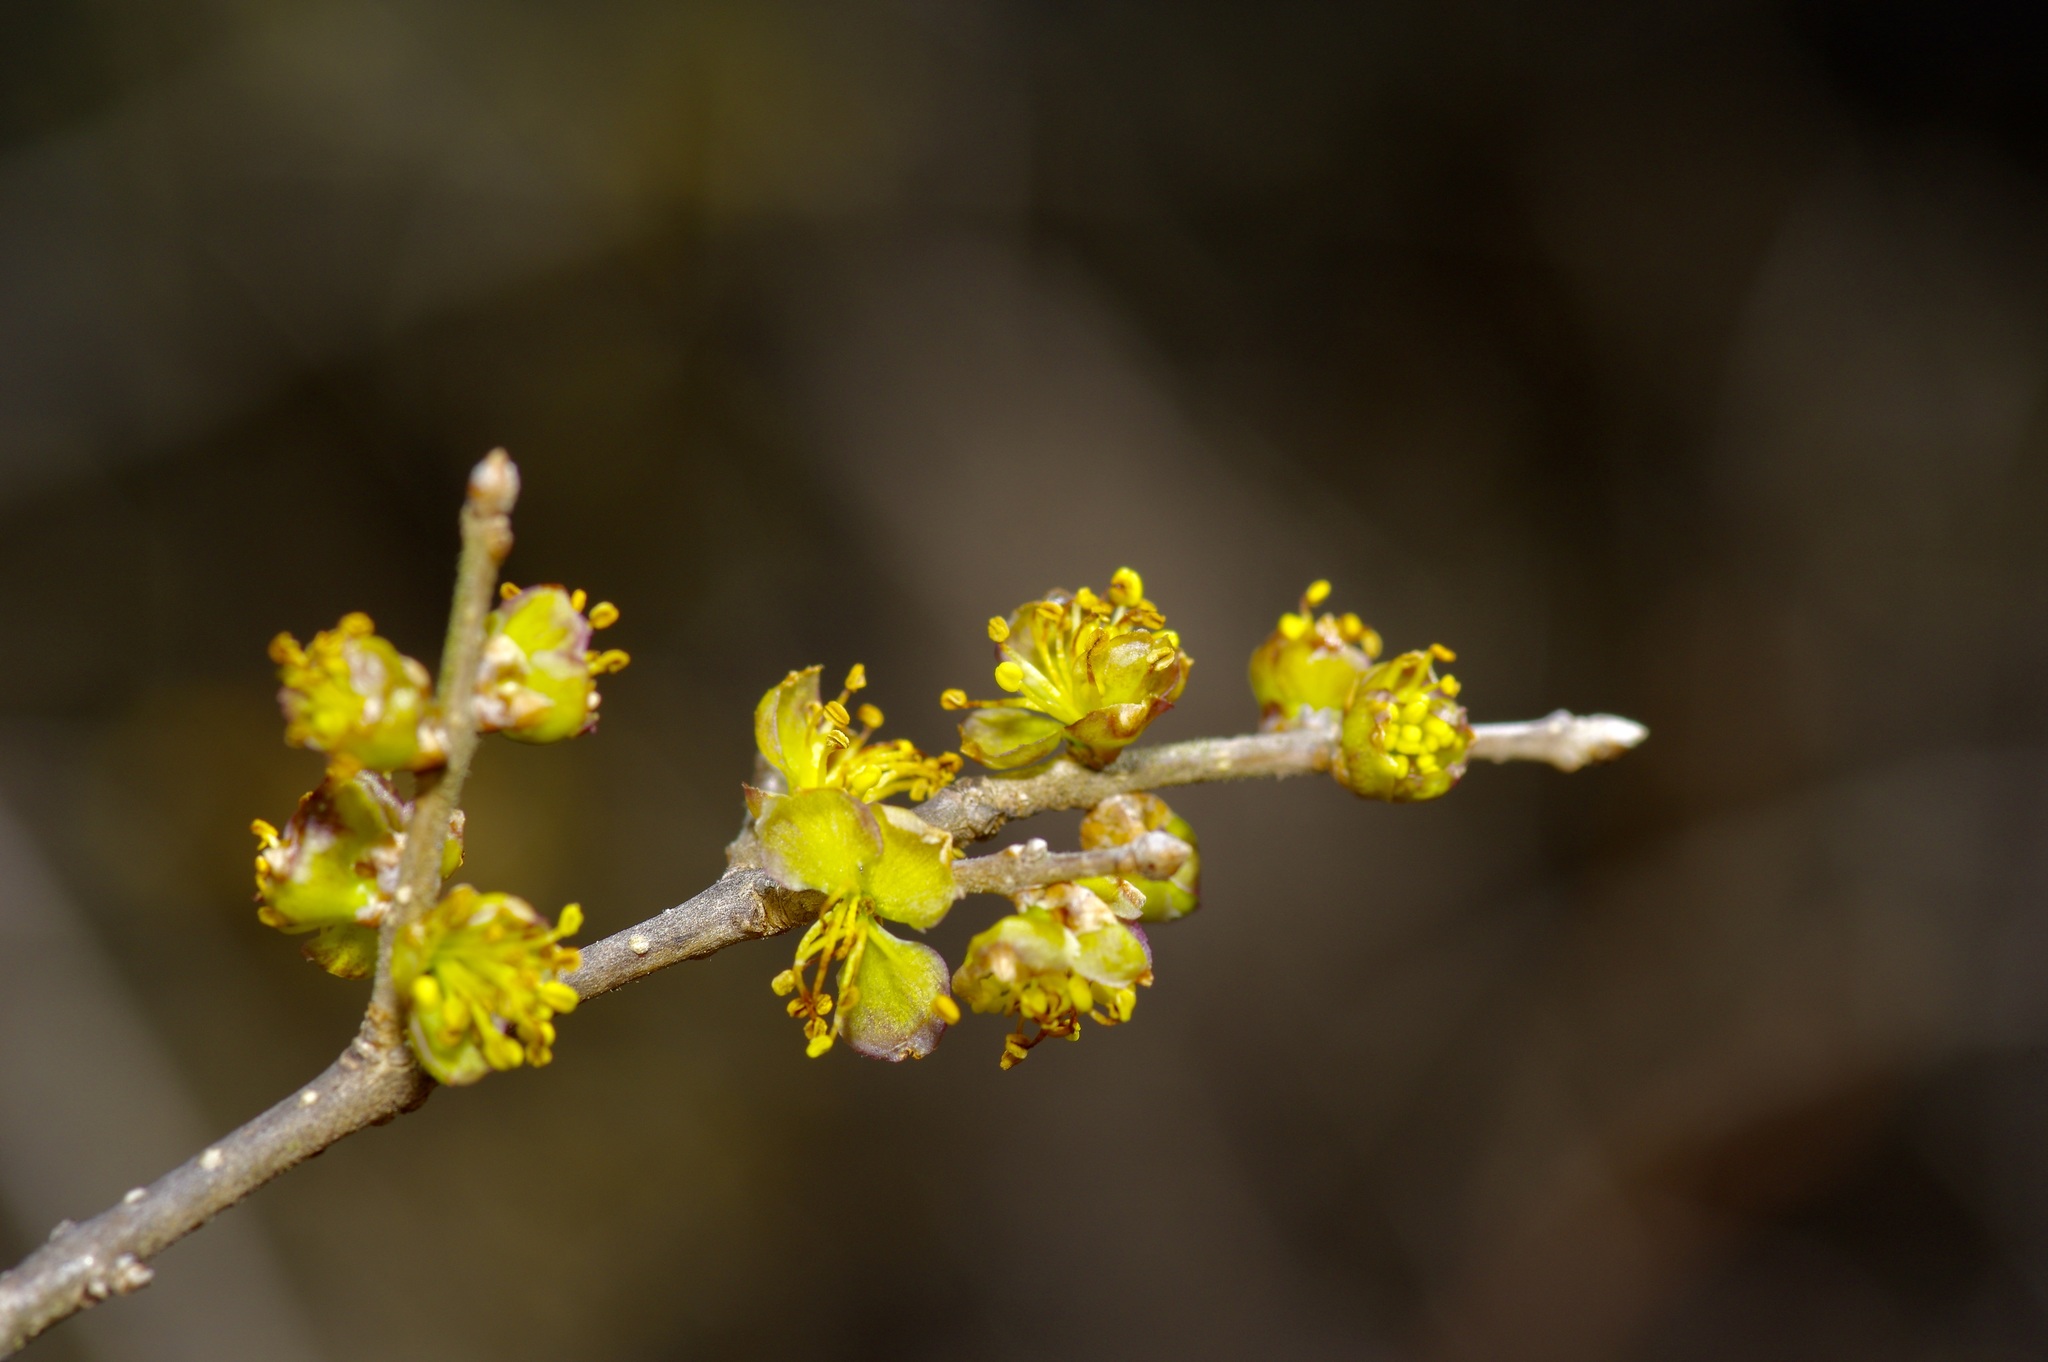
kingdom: Plantae
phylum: Tracheophyta
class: Magnoliopsida
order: Lamiales
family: Oleaceae
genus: Forestiera
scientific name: Forestiera pubescens
